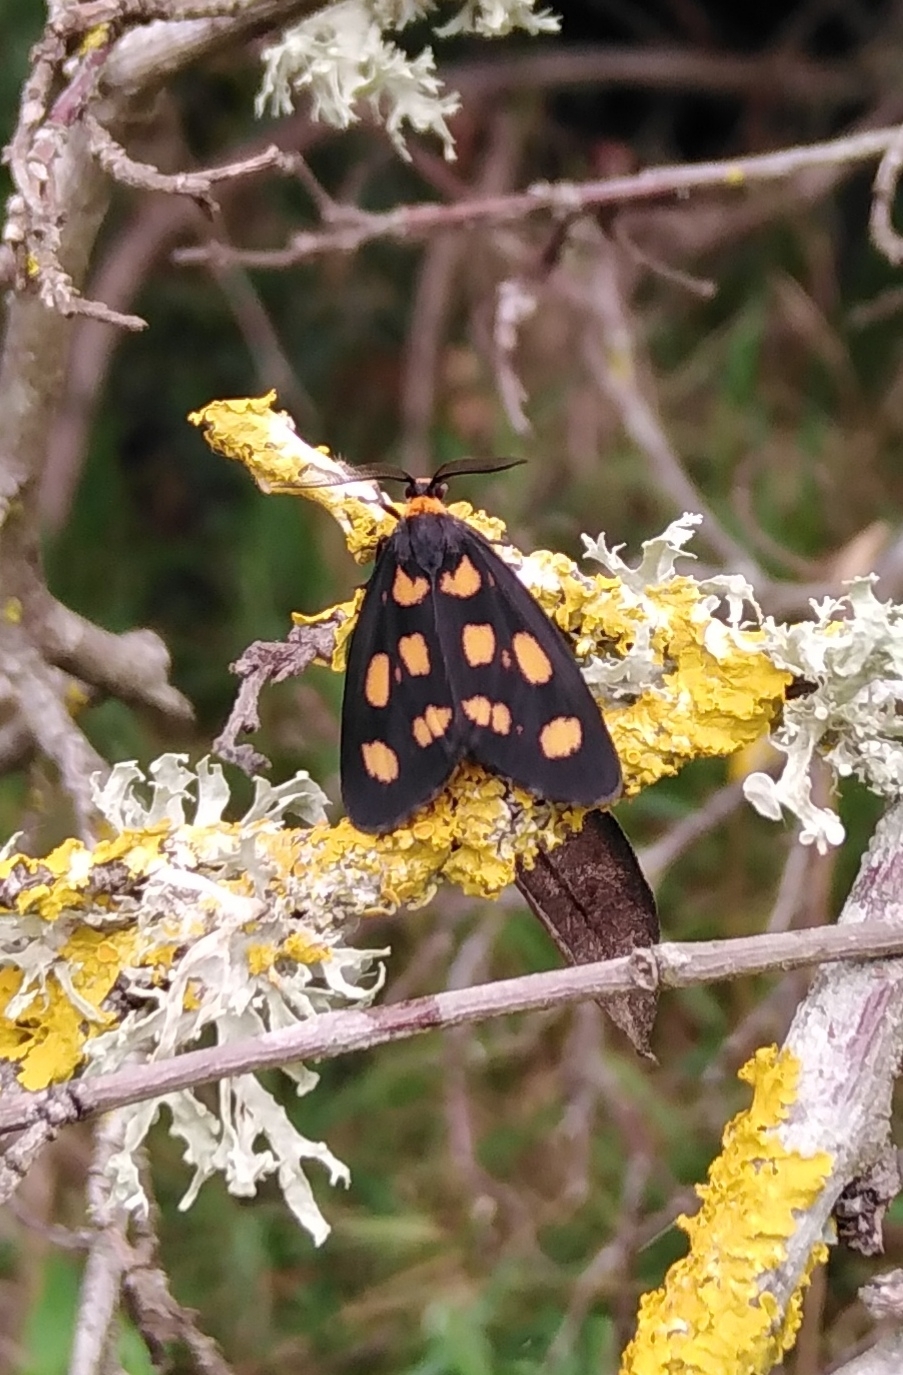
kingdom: Animalia
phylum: Arthropoda
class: Insecta
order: Lepidoptera
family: Erebidae
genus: Asura
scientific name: Asura cervicalis
